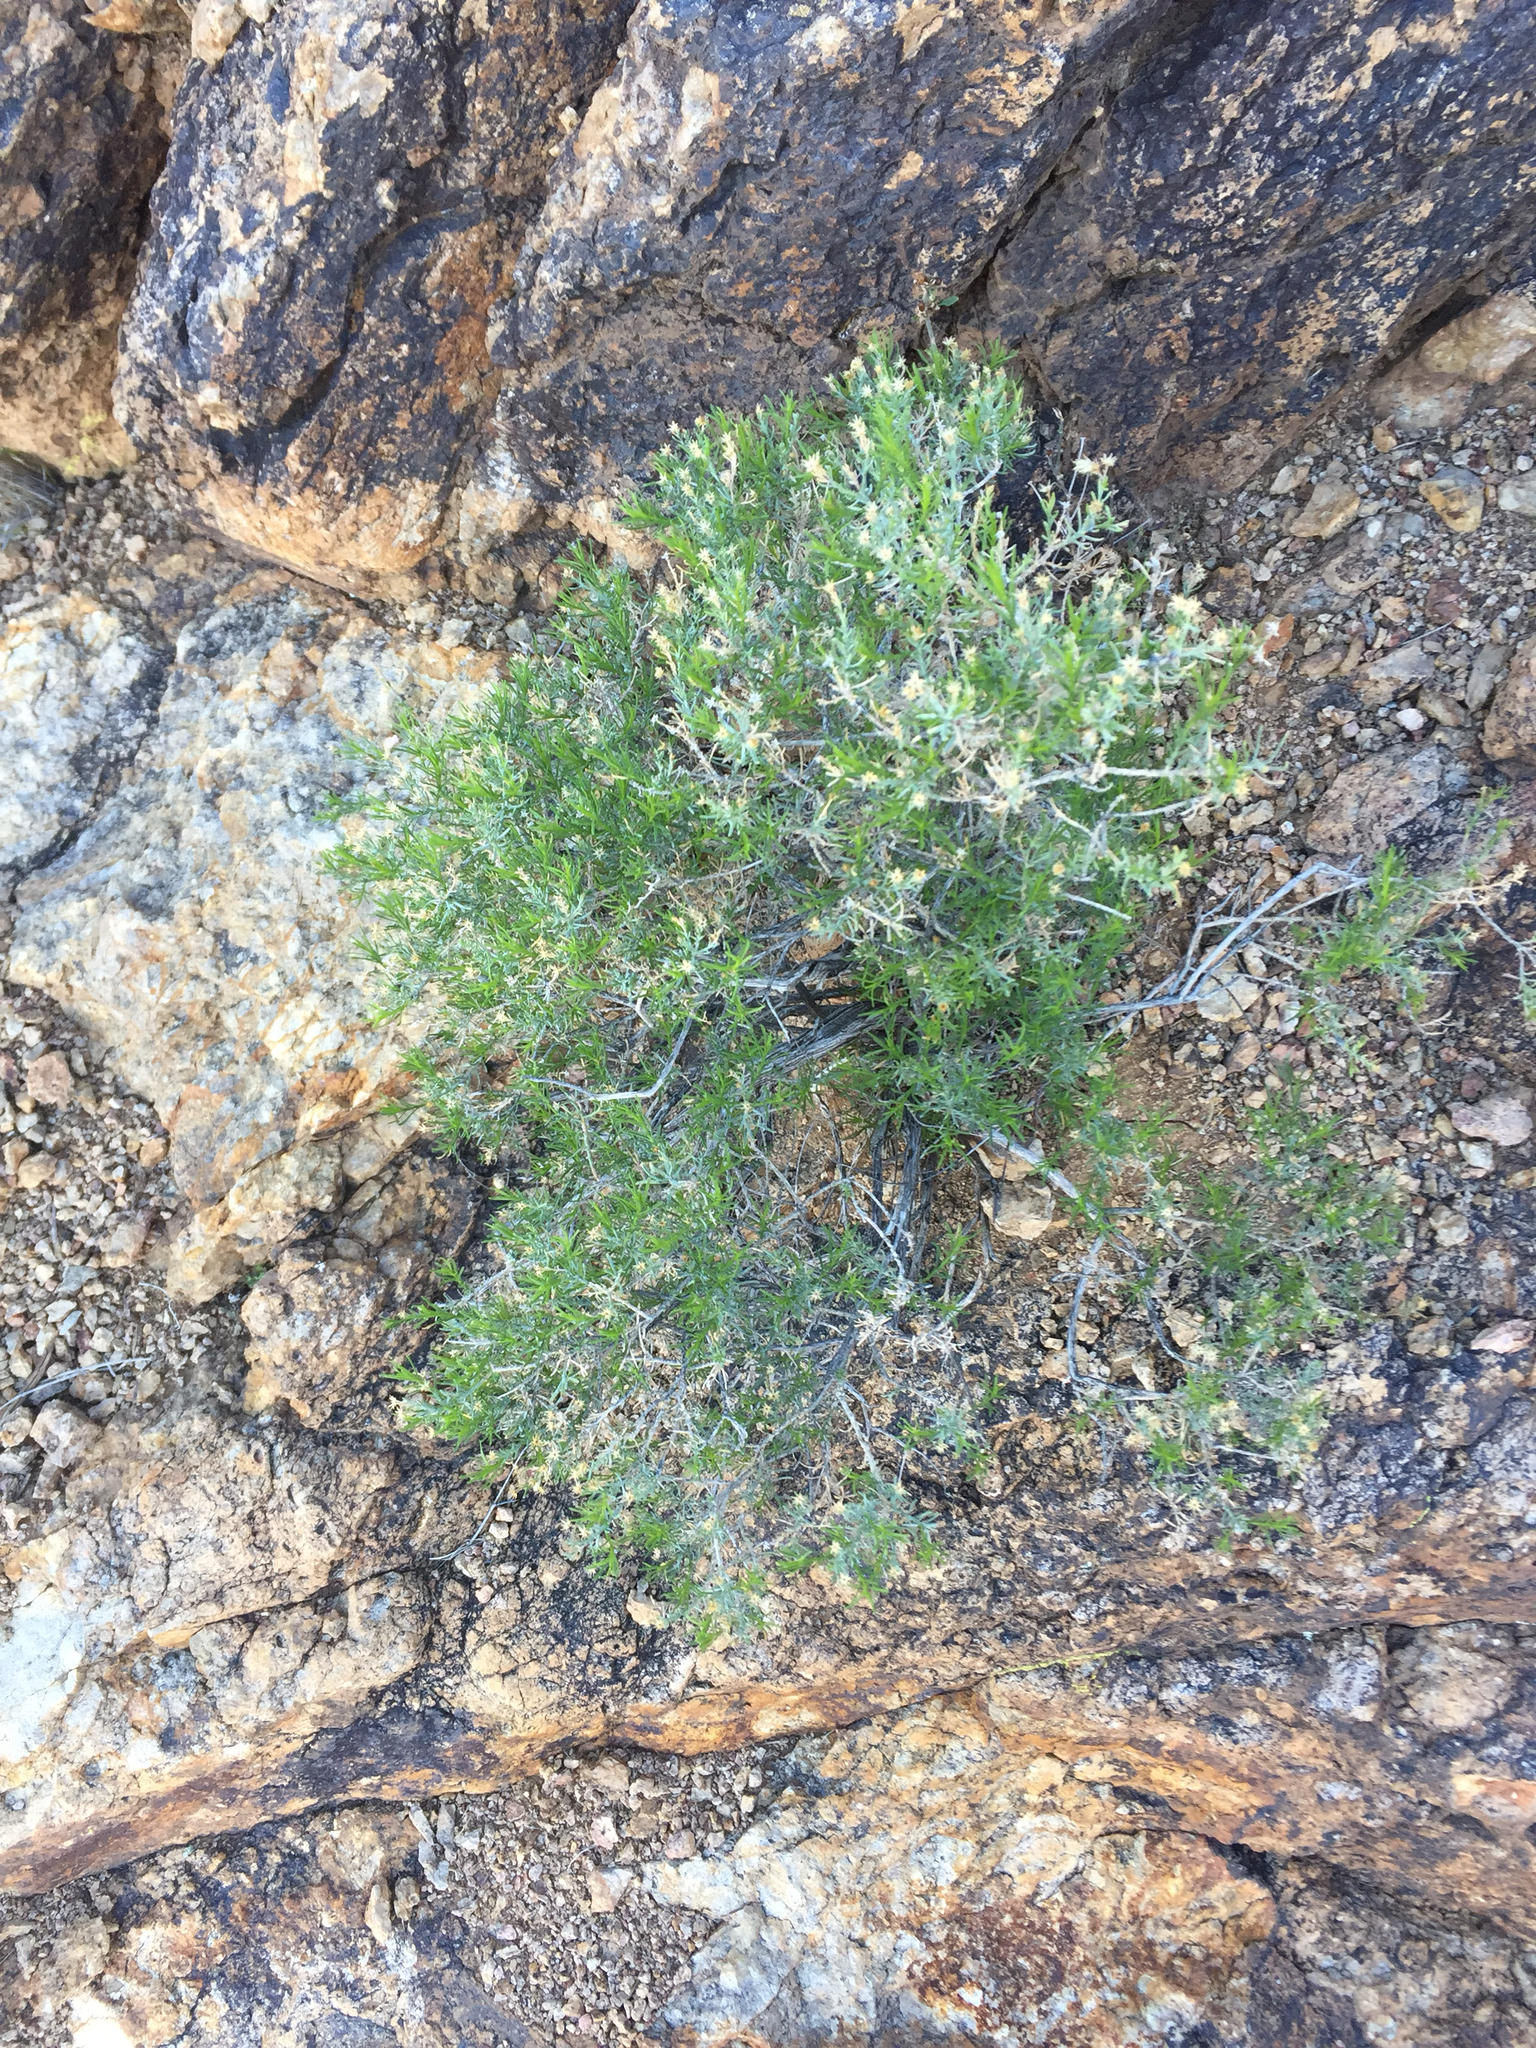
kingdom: Plantae
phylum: Tracheophyta
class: Magnoliopsida
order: Asterales
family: Asteraceae
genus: Ericameria
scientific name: Ericameria laricifolia
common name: Turpentine-bush
